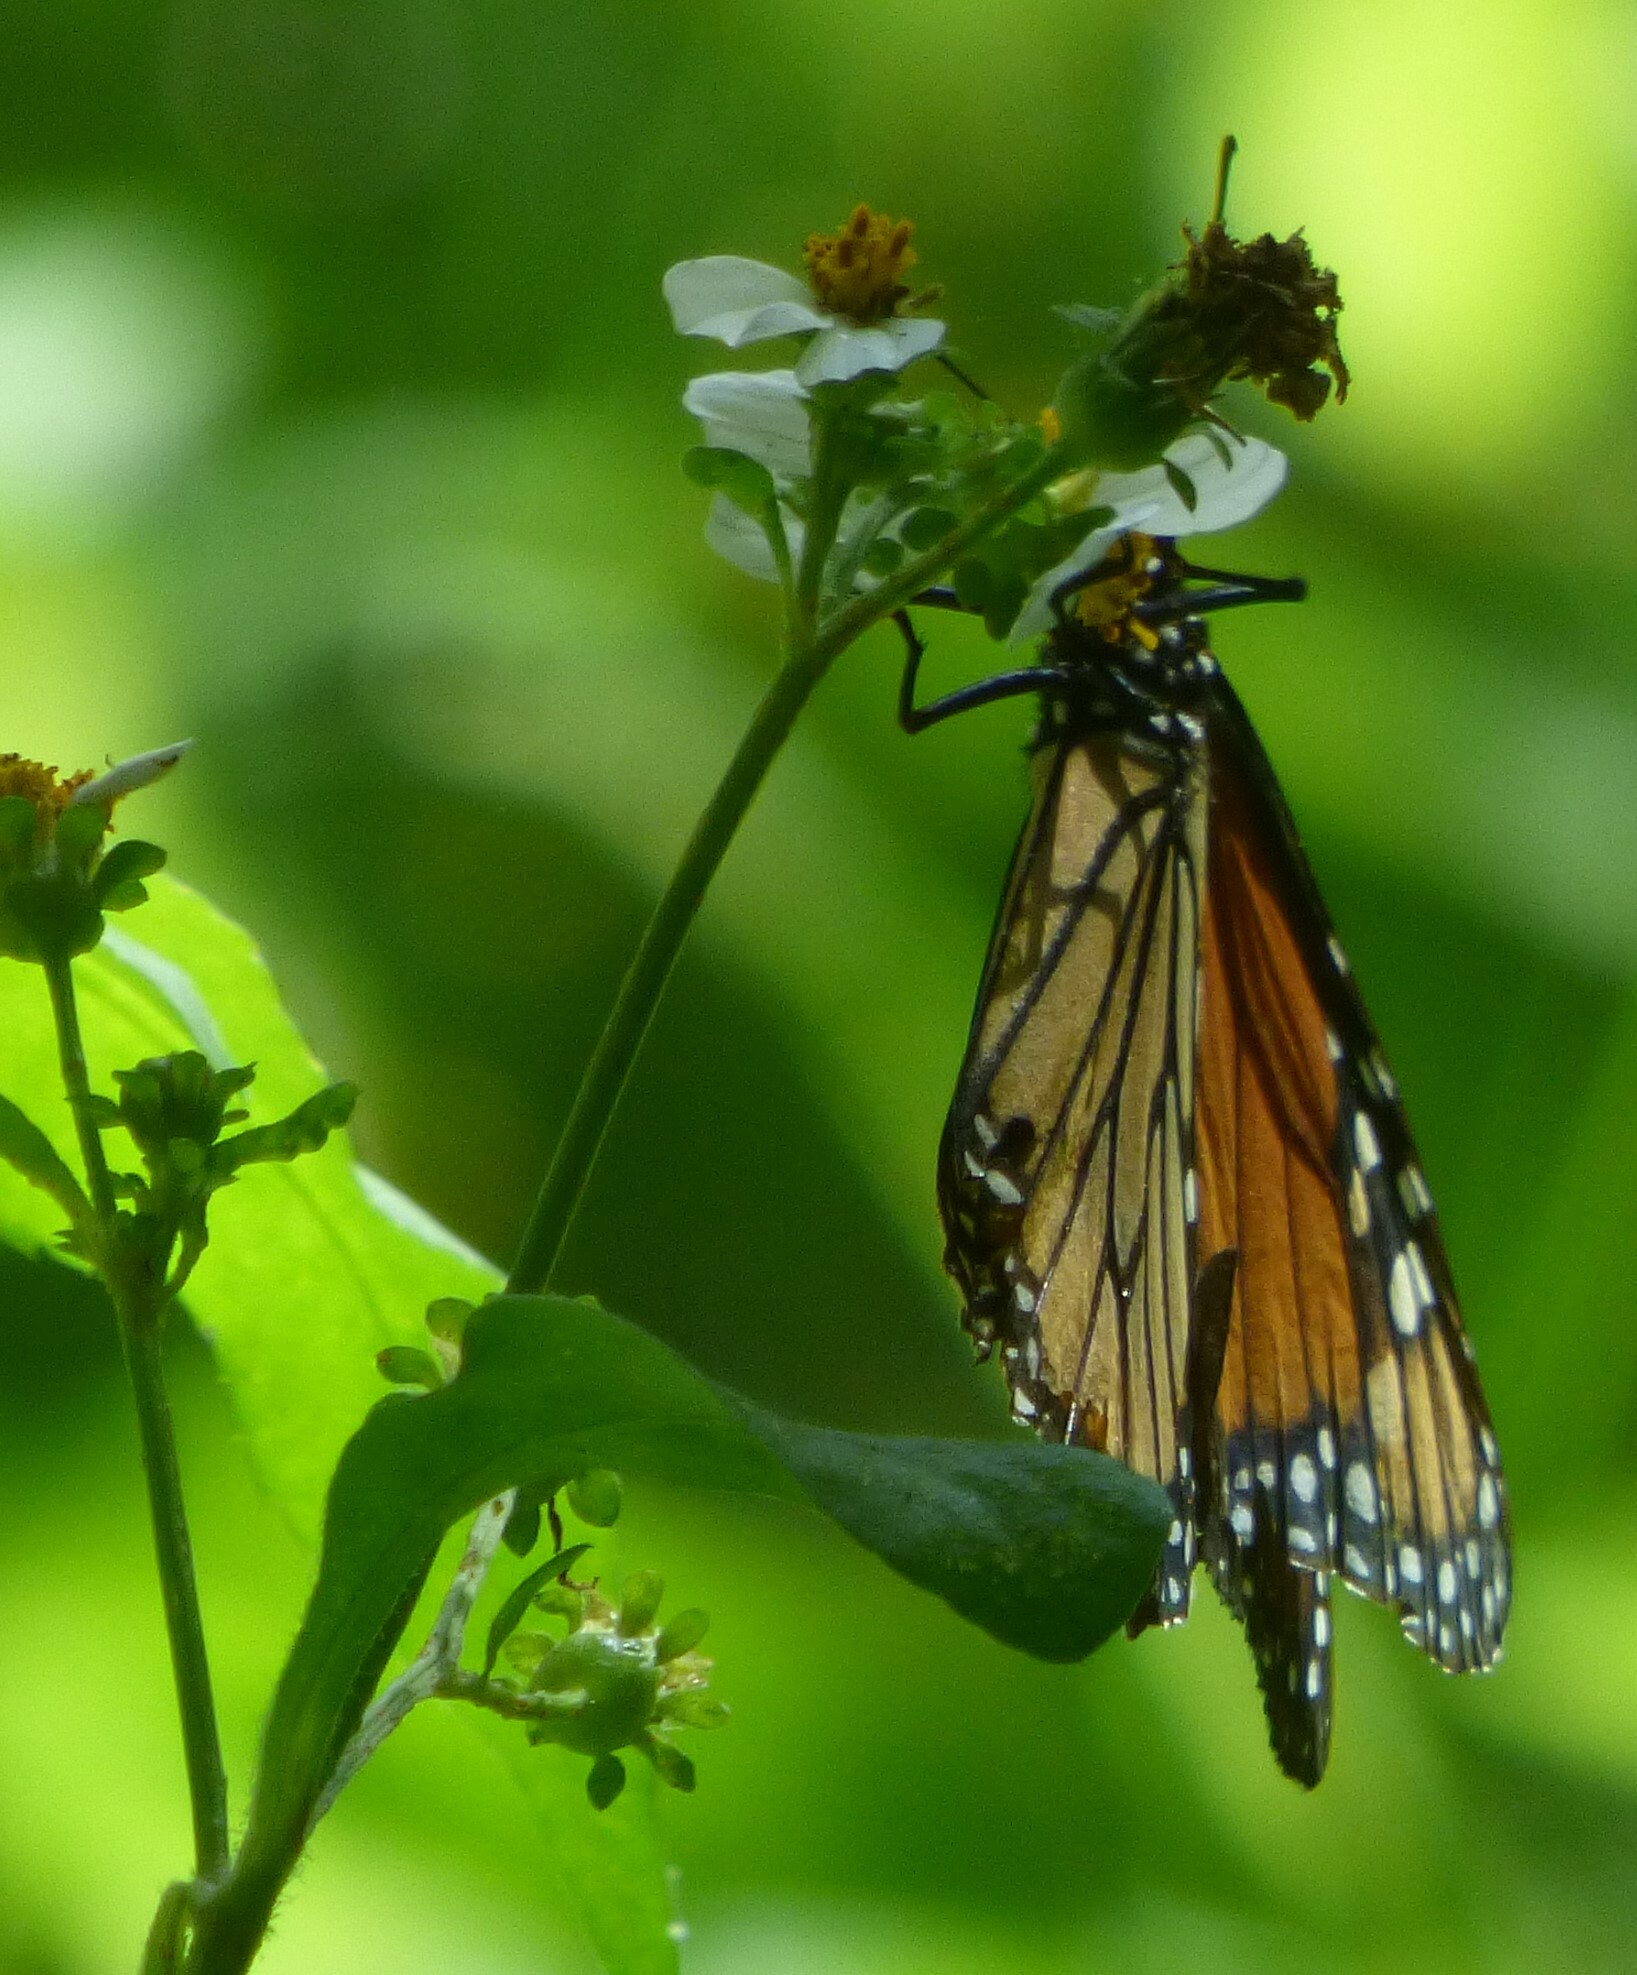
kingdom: Animalia
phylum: Arthropoda
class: Insecta
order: Lepidoptera
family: Nymphalidae
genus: Danaus
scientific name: Danaus plexippus
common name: Monarch
